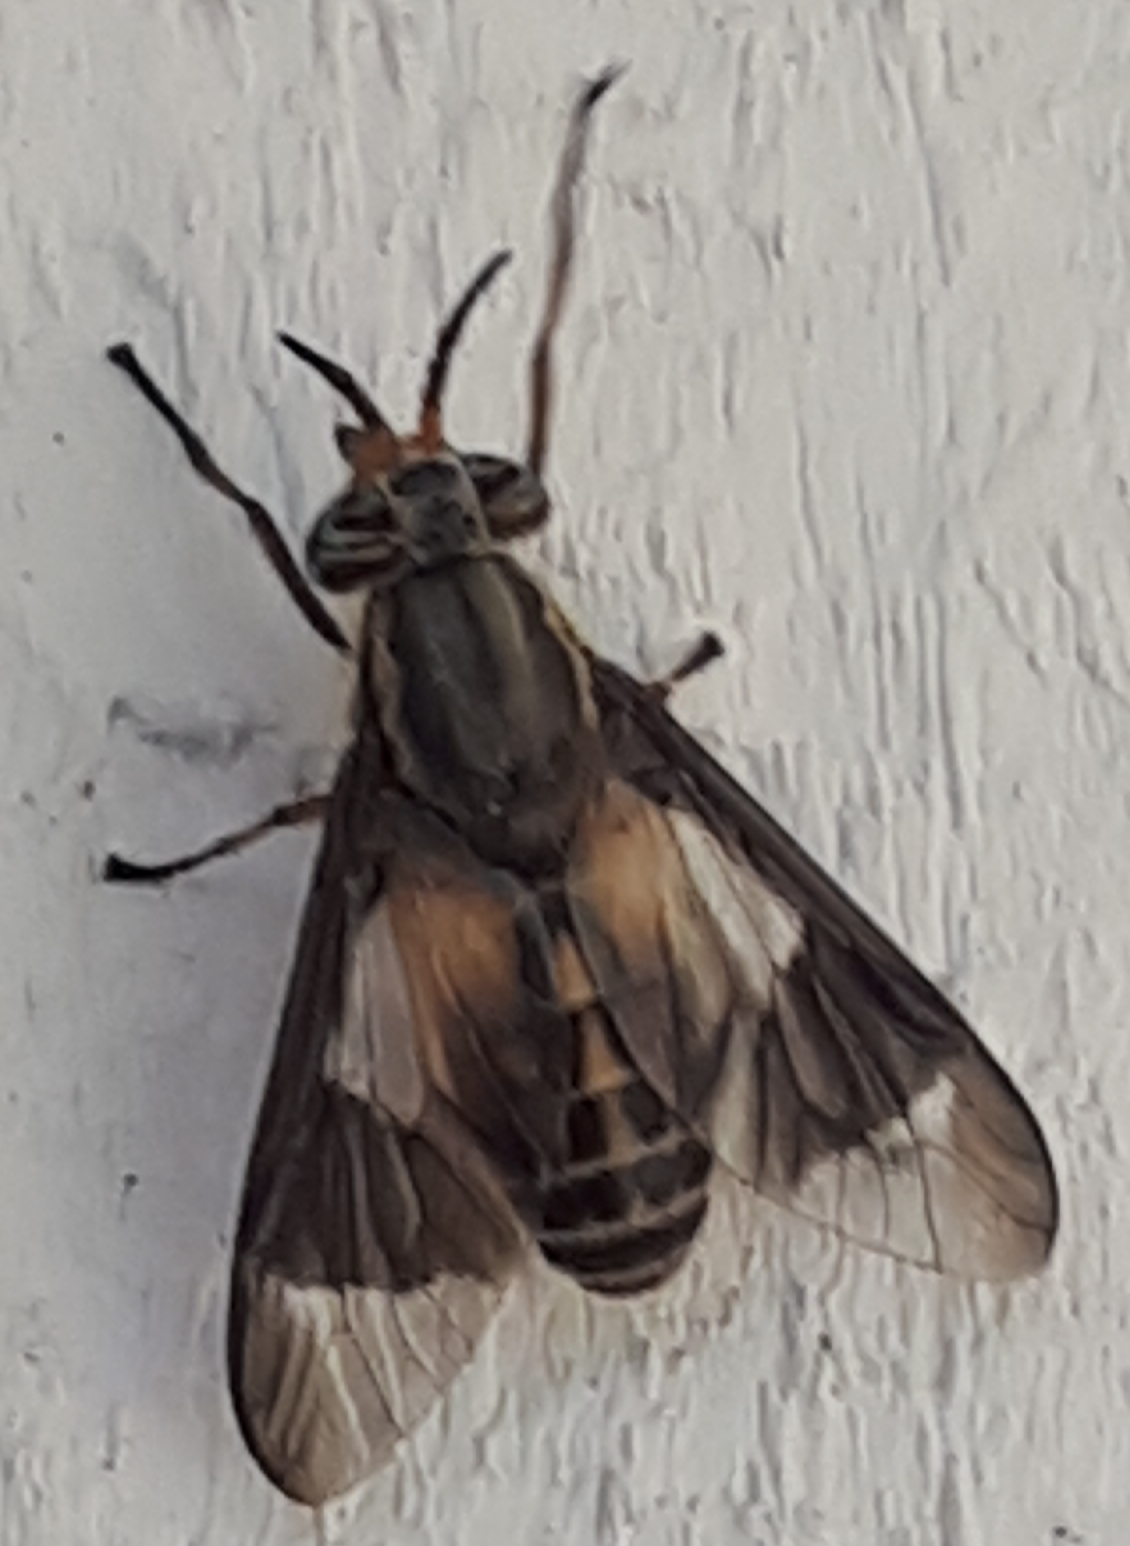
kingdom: Animalia
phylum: Arthropoda
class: Insecta
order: Diptera
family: Tabanidae
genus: Chrysops
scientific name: Chrysops montanus
